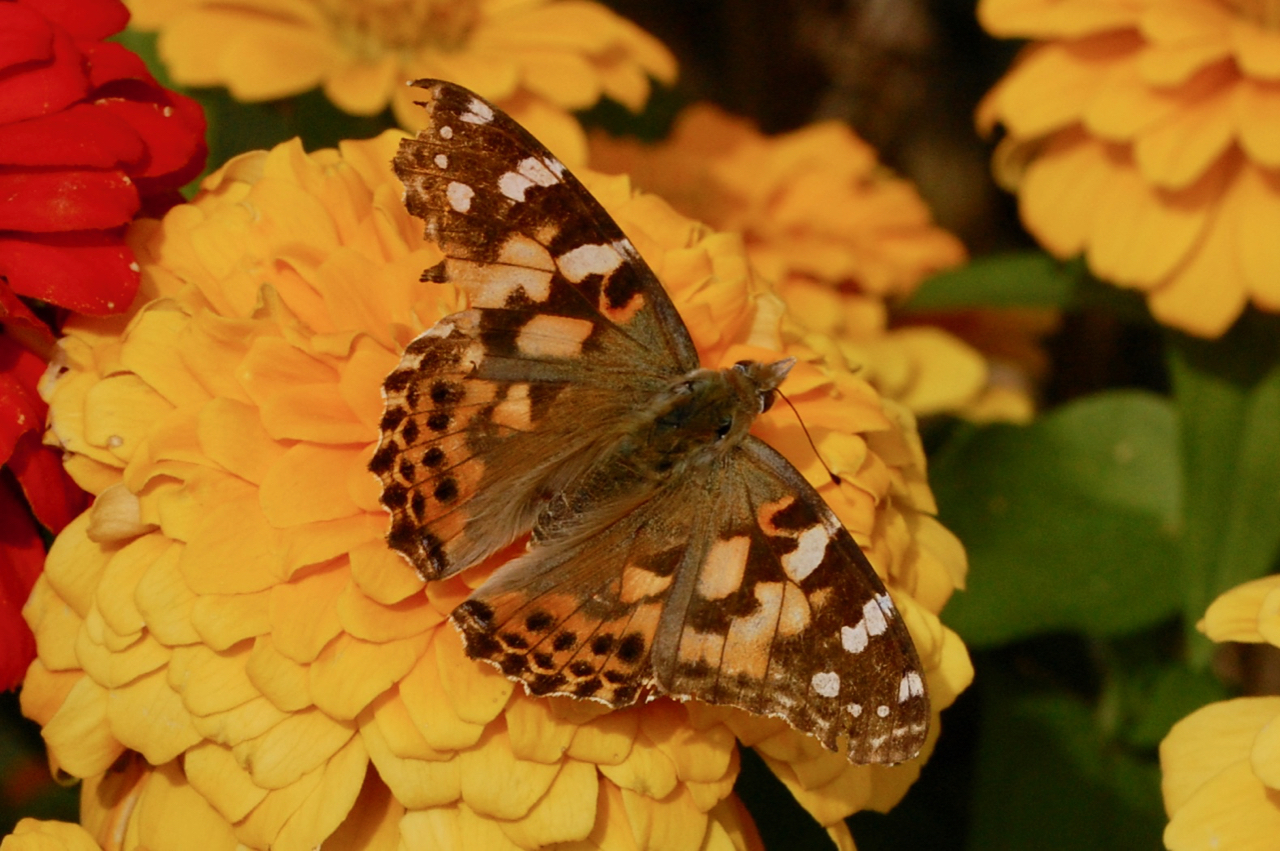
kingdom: Animalia
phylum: Arthropoda
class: Insecta
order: Lepidoptera
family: Nymphalidae
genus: Vanessa
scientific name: Vanessa cardui
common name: Painted lady
